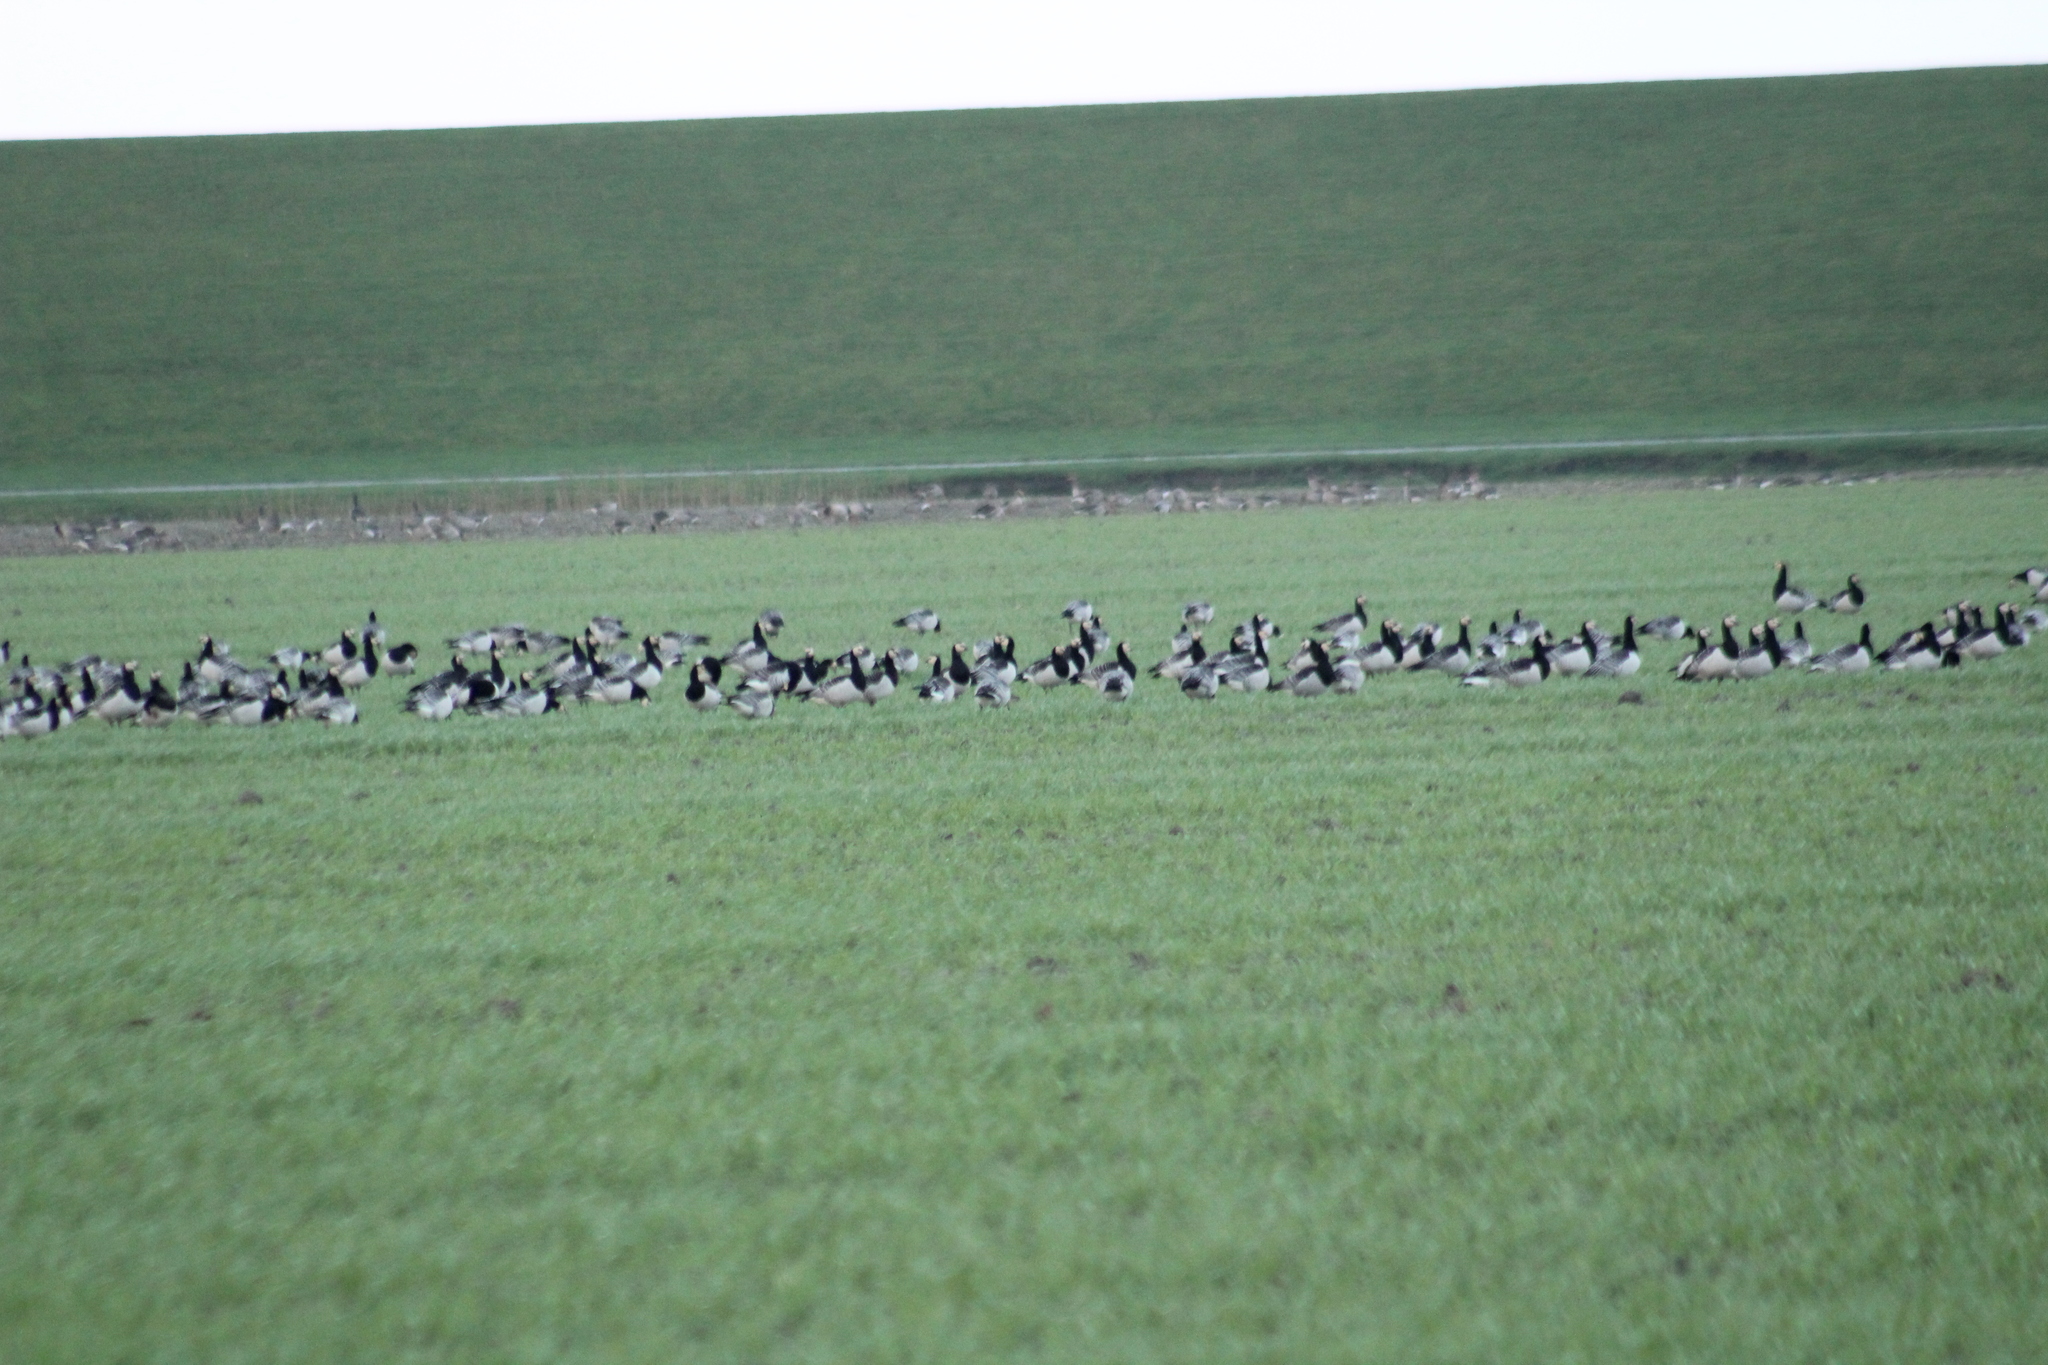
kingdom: Animalia
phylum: Chordata
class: Aves
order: Anseriformes
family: Anatidae
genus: Branta
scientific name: Branta leucopsis
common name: Barnacle goose
